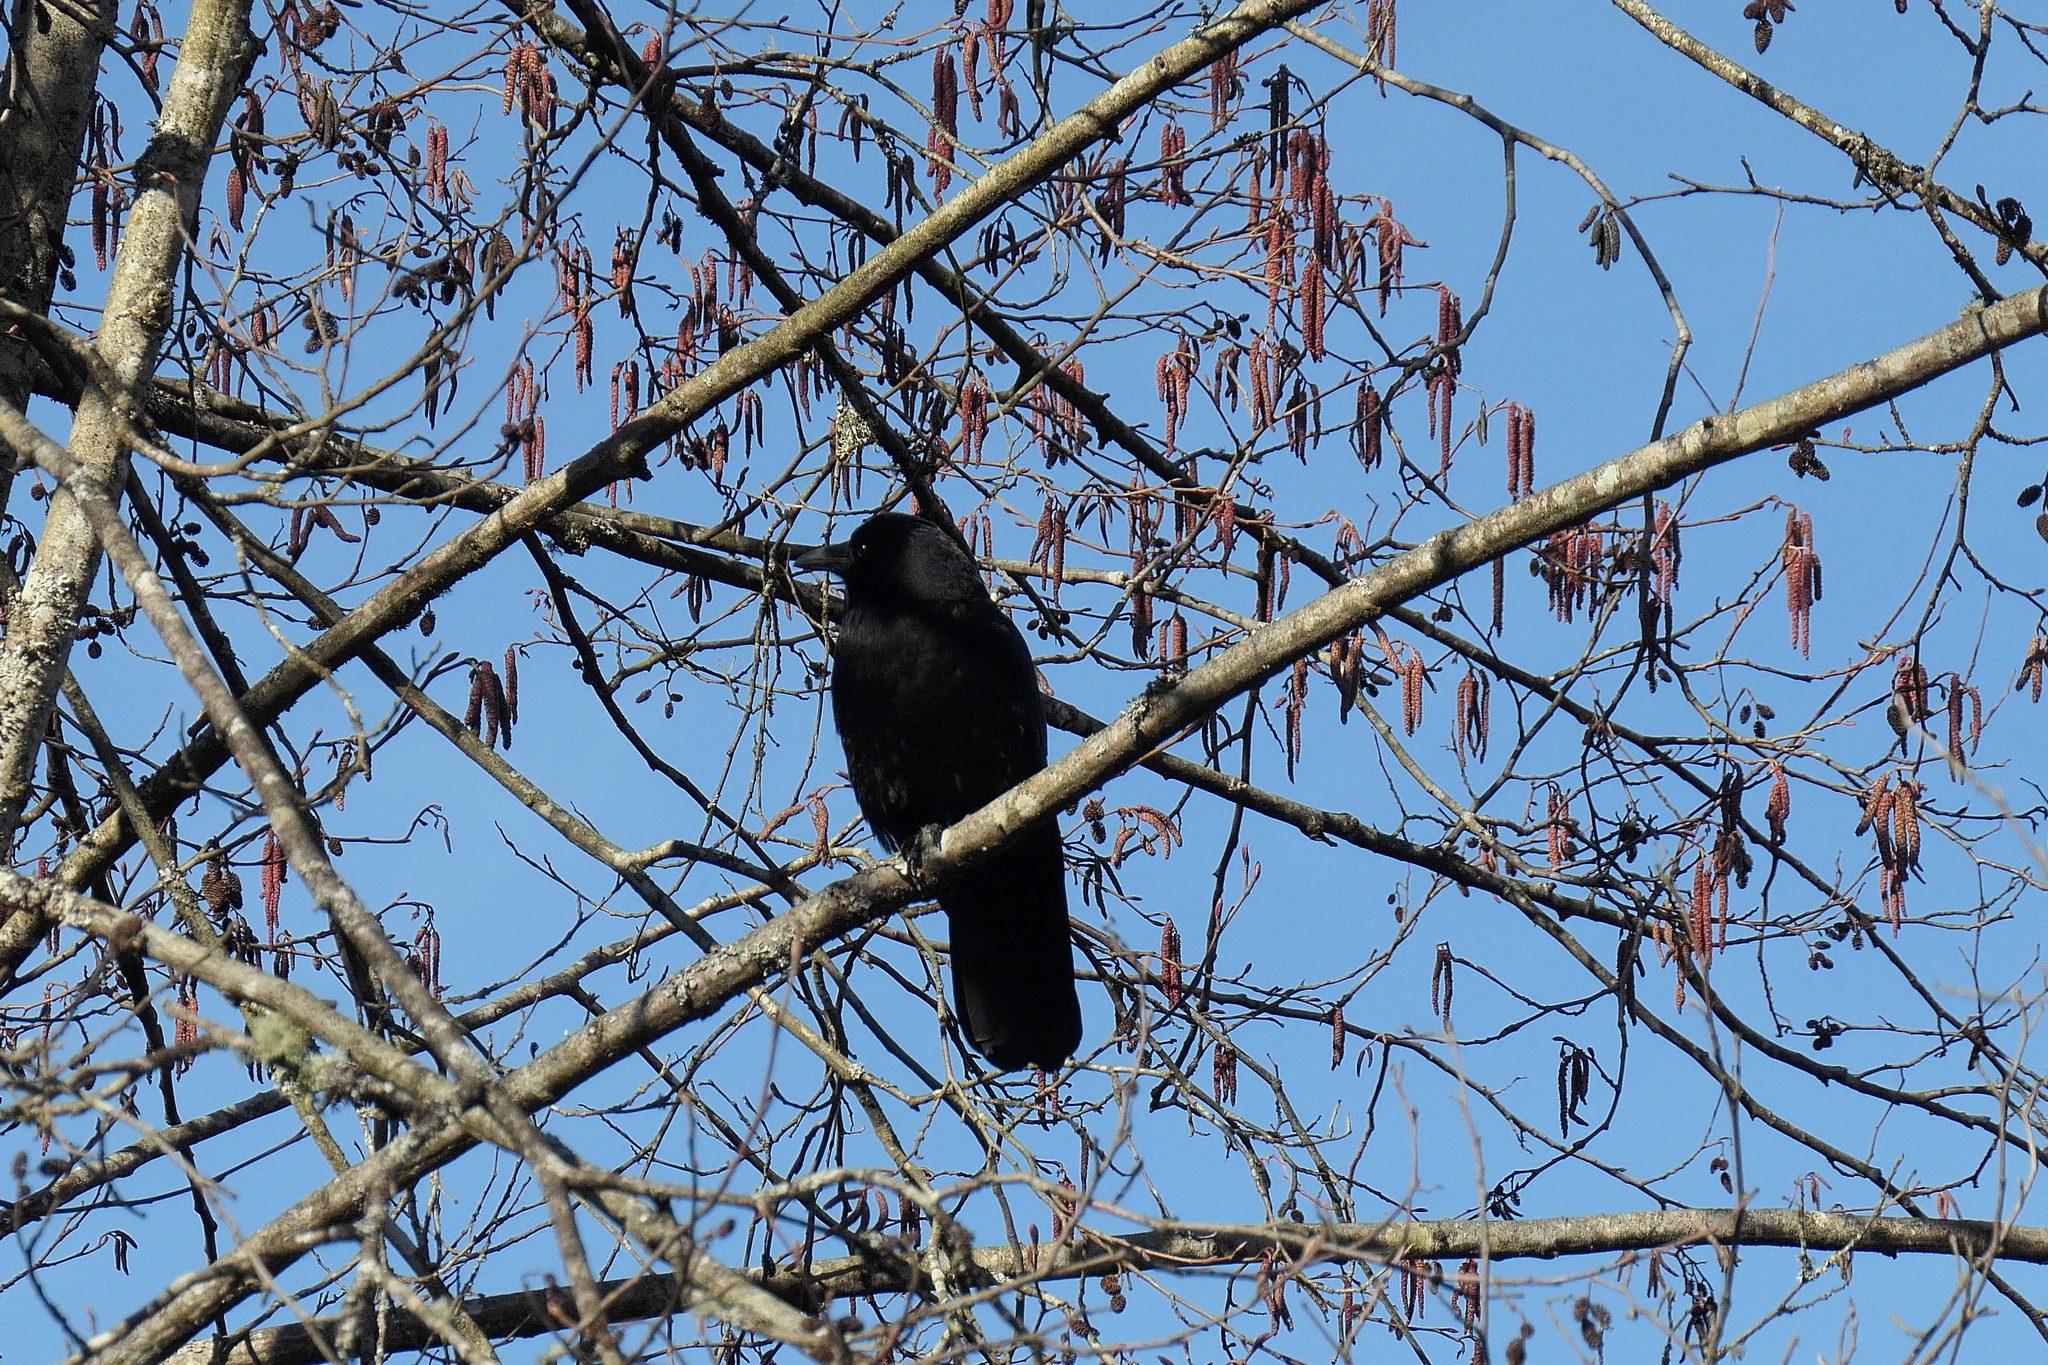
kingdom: Animalia
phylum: Chordata
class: Aves
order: Passeriformes
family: Corvidae
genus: Corvus
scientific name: Corvus brachyrhynchos
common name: American crow
